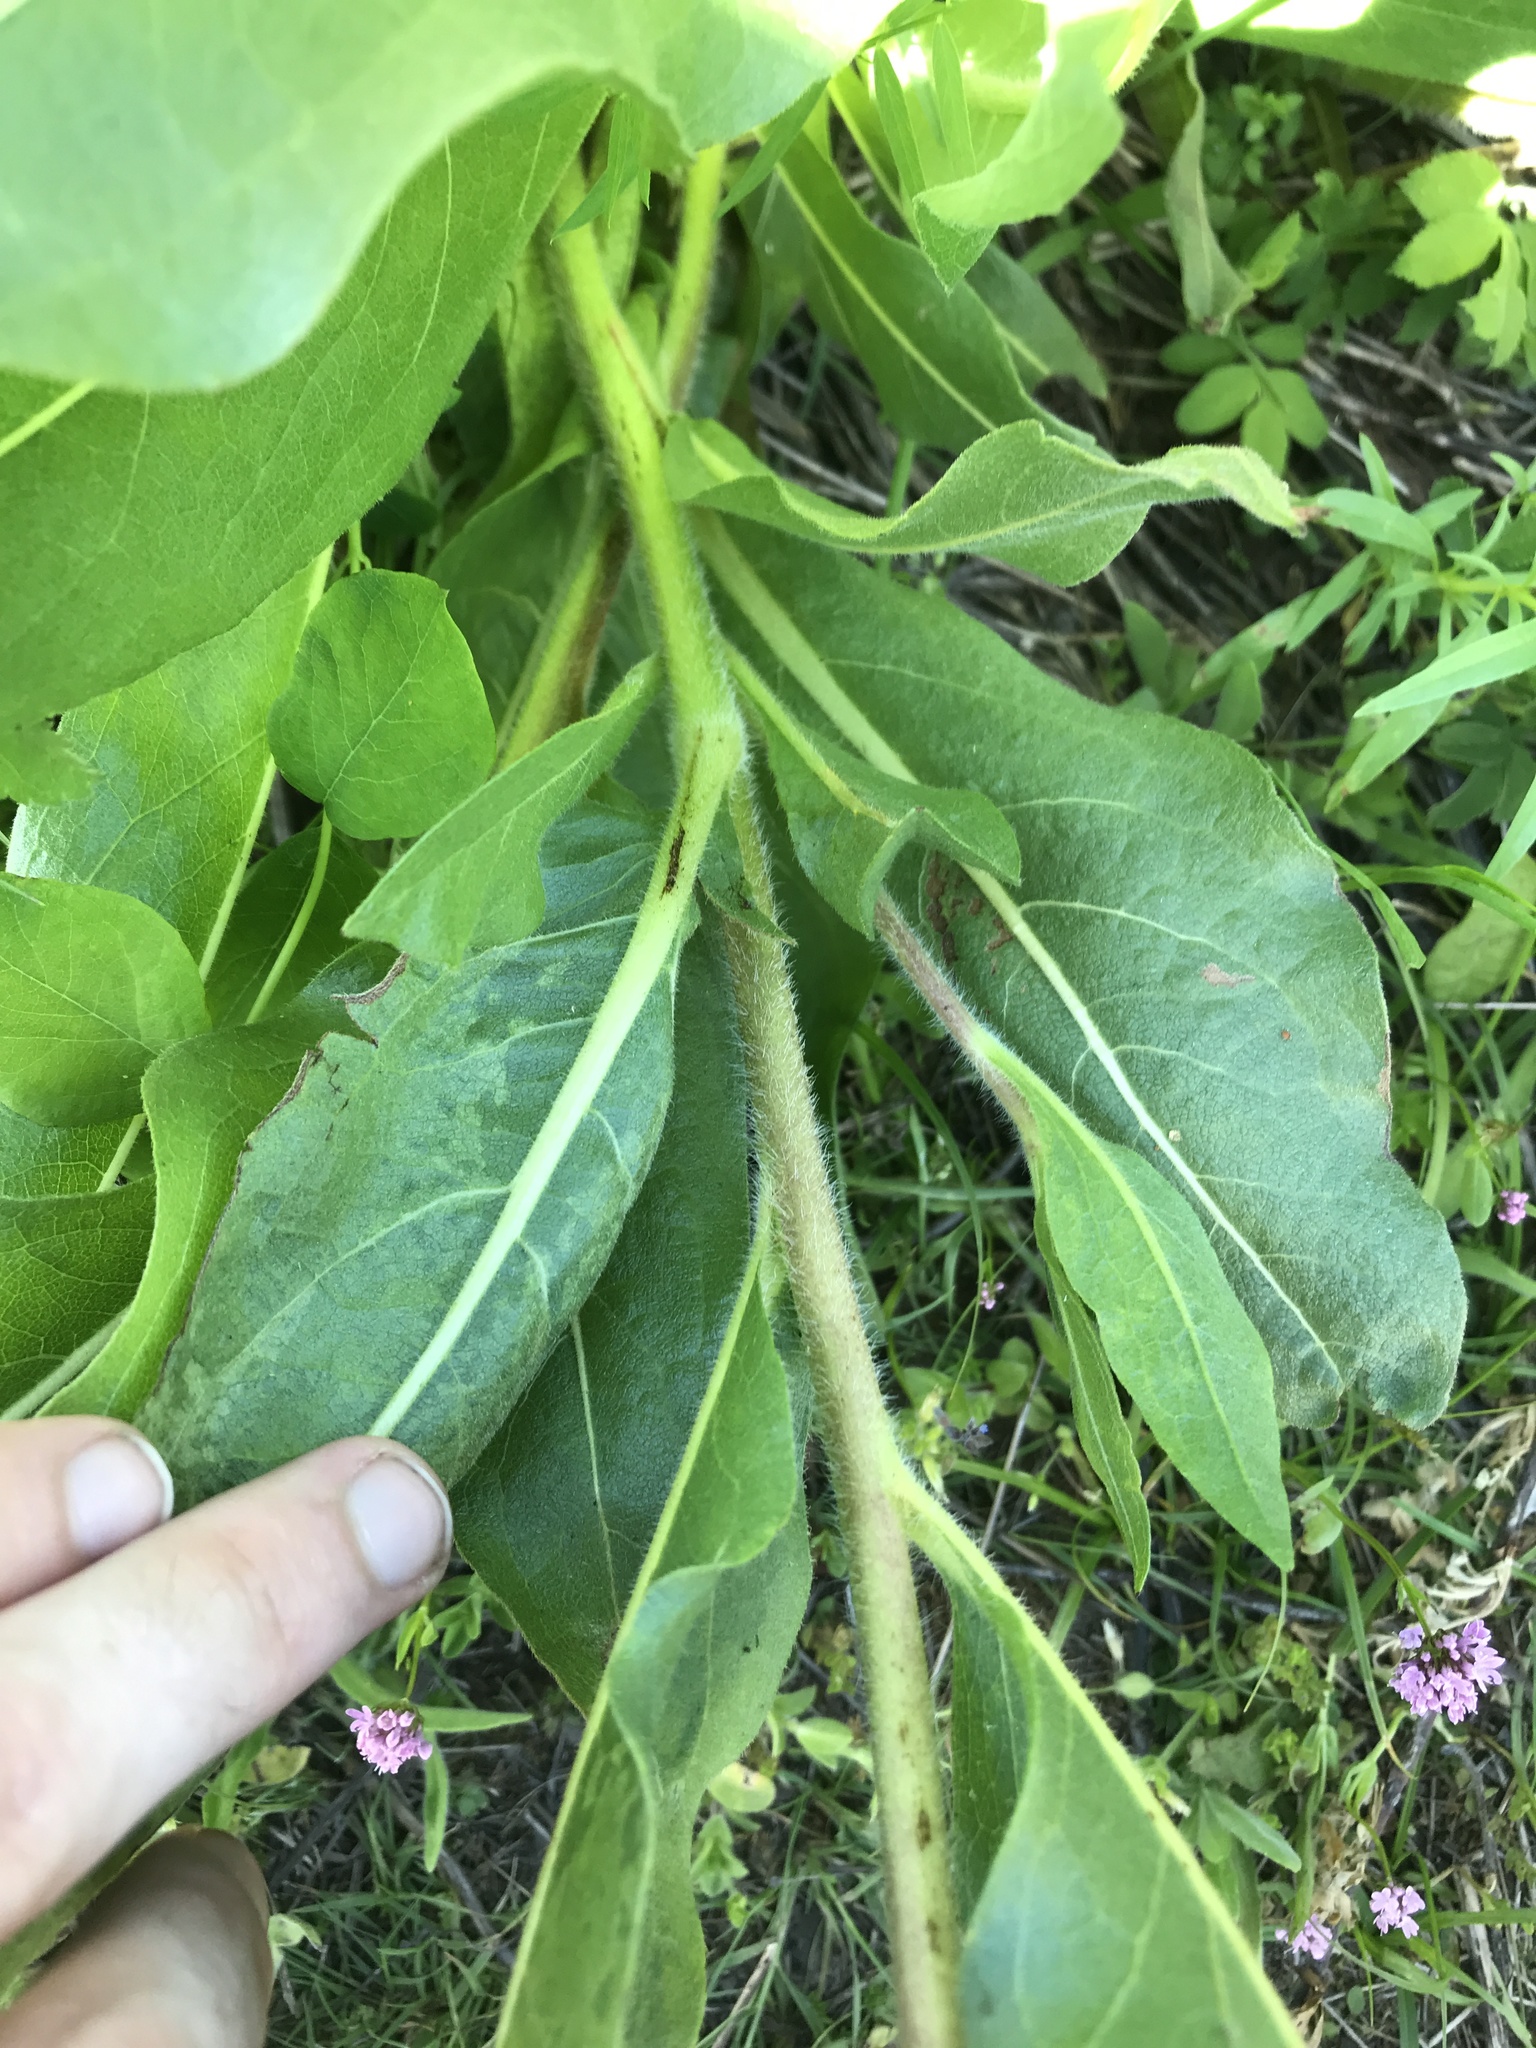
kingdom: Plantae
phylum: Tracheophyta
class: Magnoliopsida
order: Asterales
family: Asteraceae
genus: Wyethia
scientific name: Wyethia angustifolia
